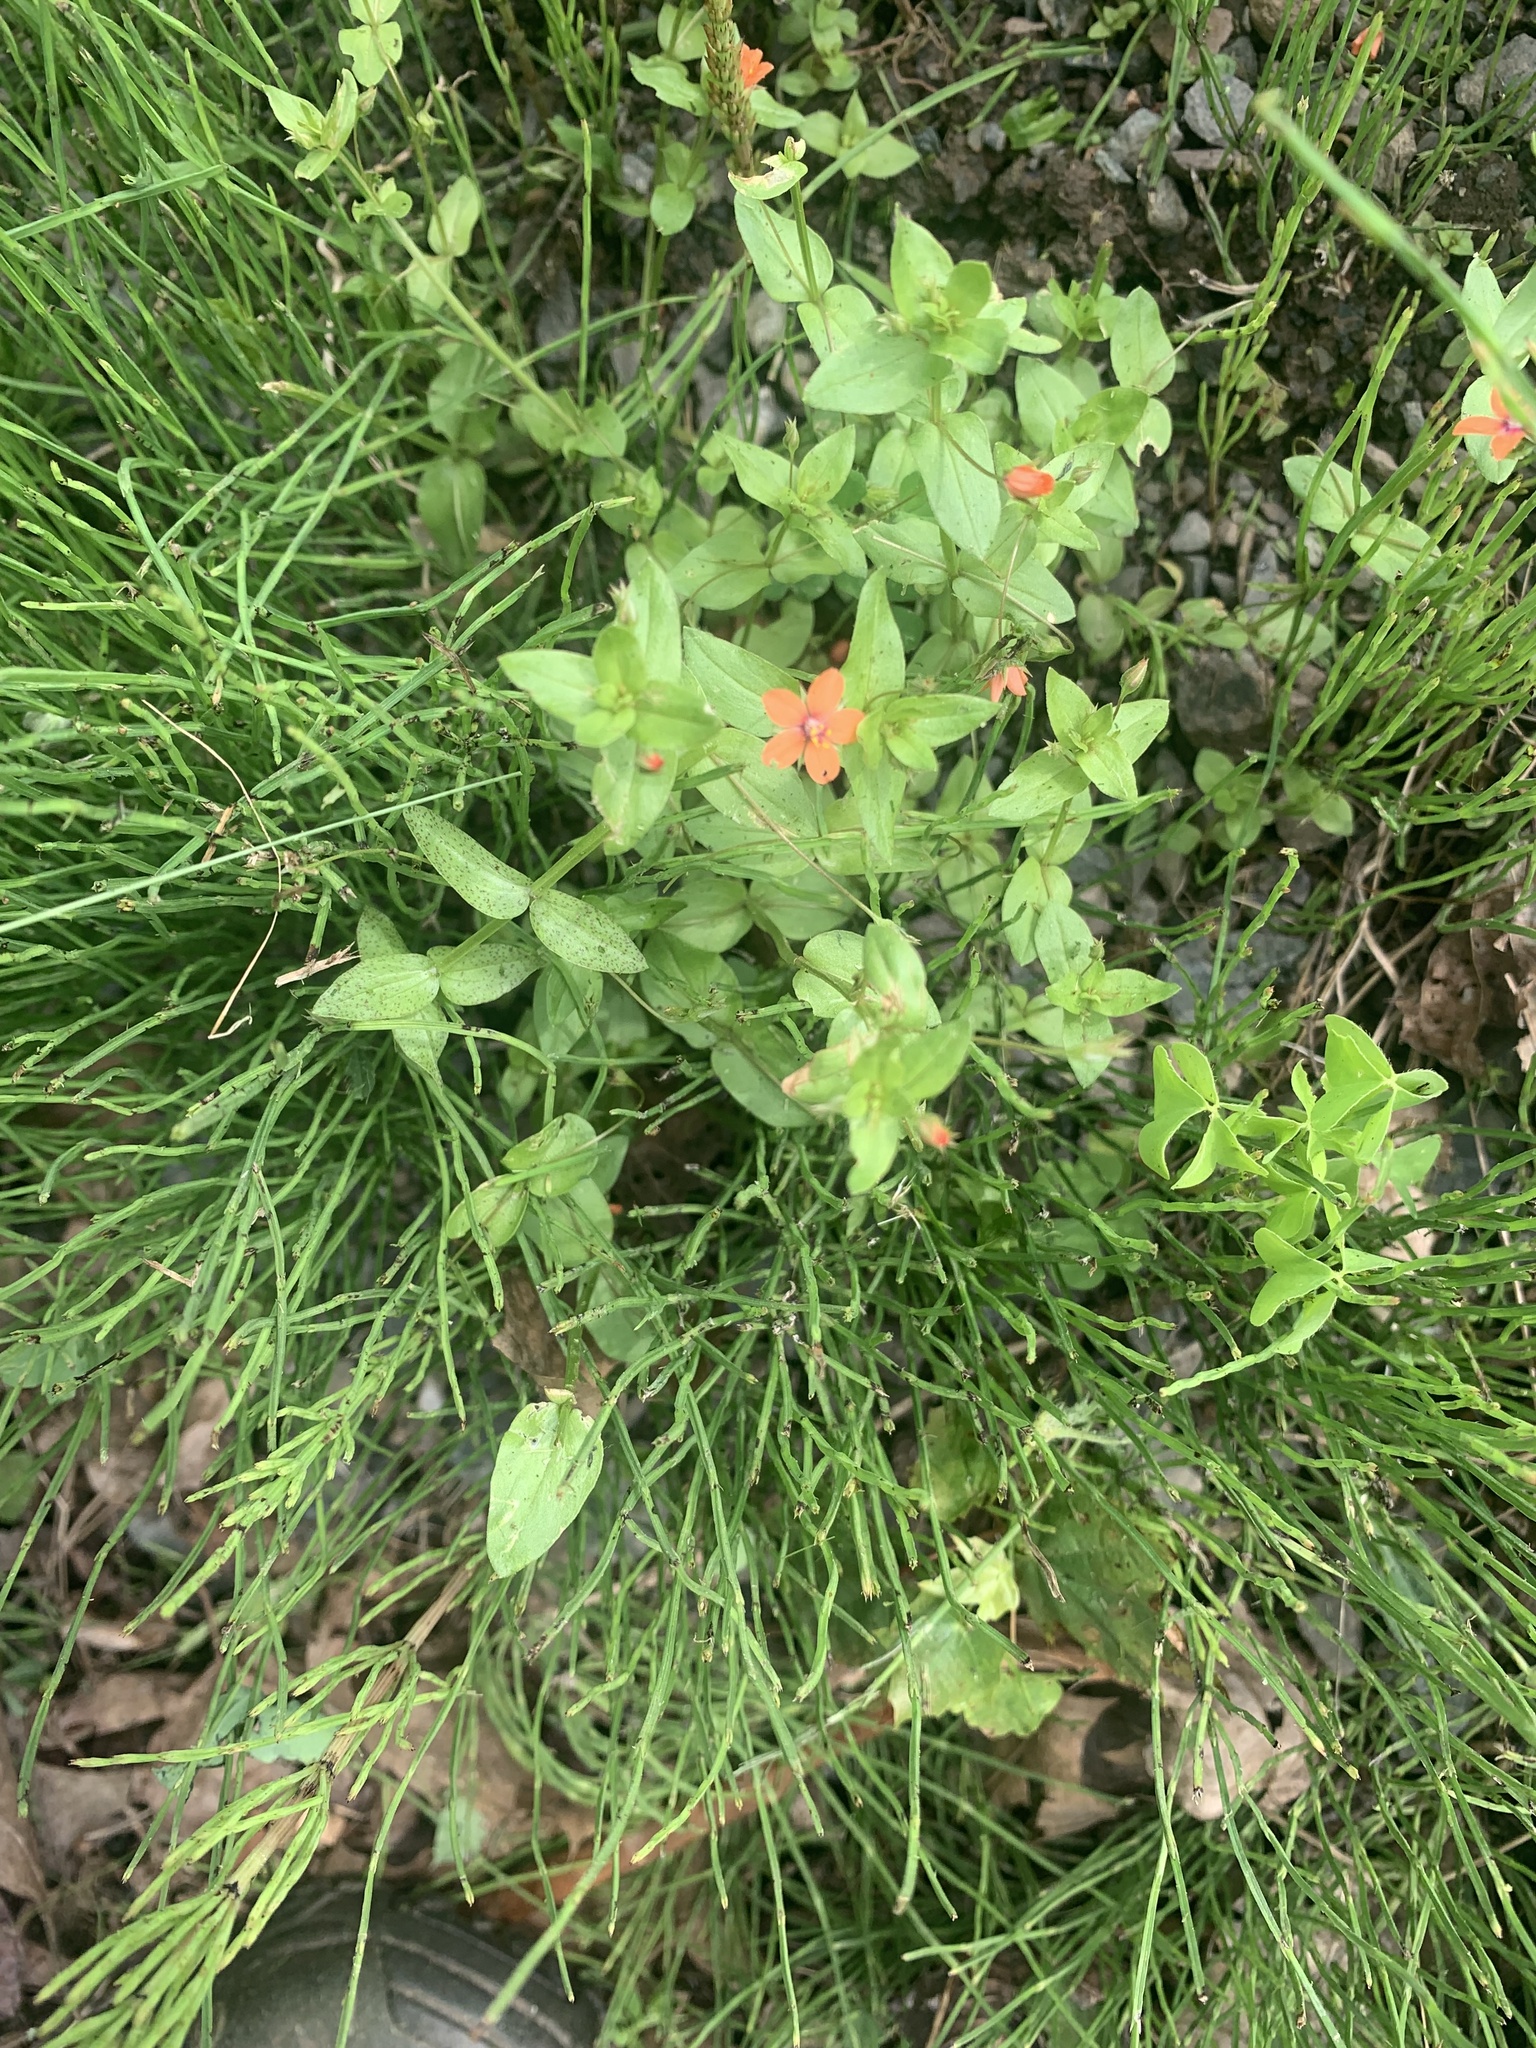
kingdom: Plantae
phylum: Tracheophyta
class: Magnoliopsida
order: Ericales
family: Primulaceae
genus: Lysimachia
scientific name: Lysimachia arvensis
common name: Scarlet pimpernel
